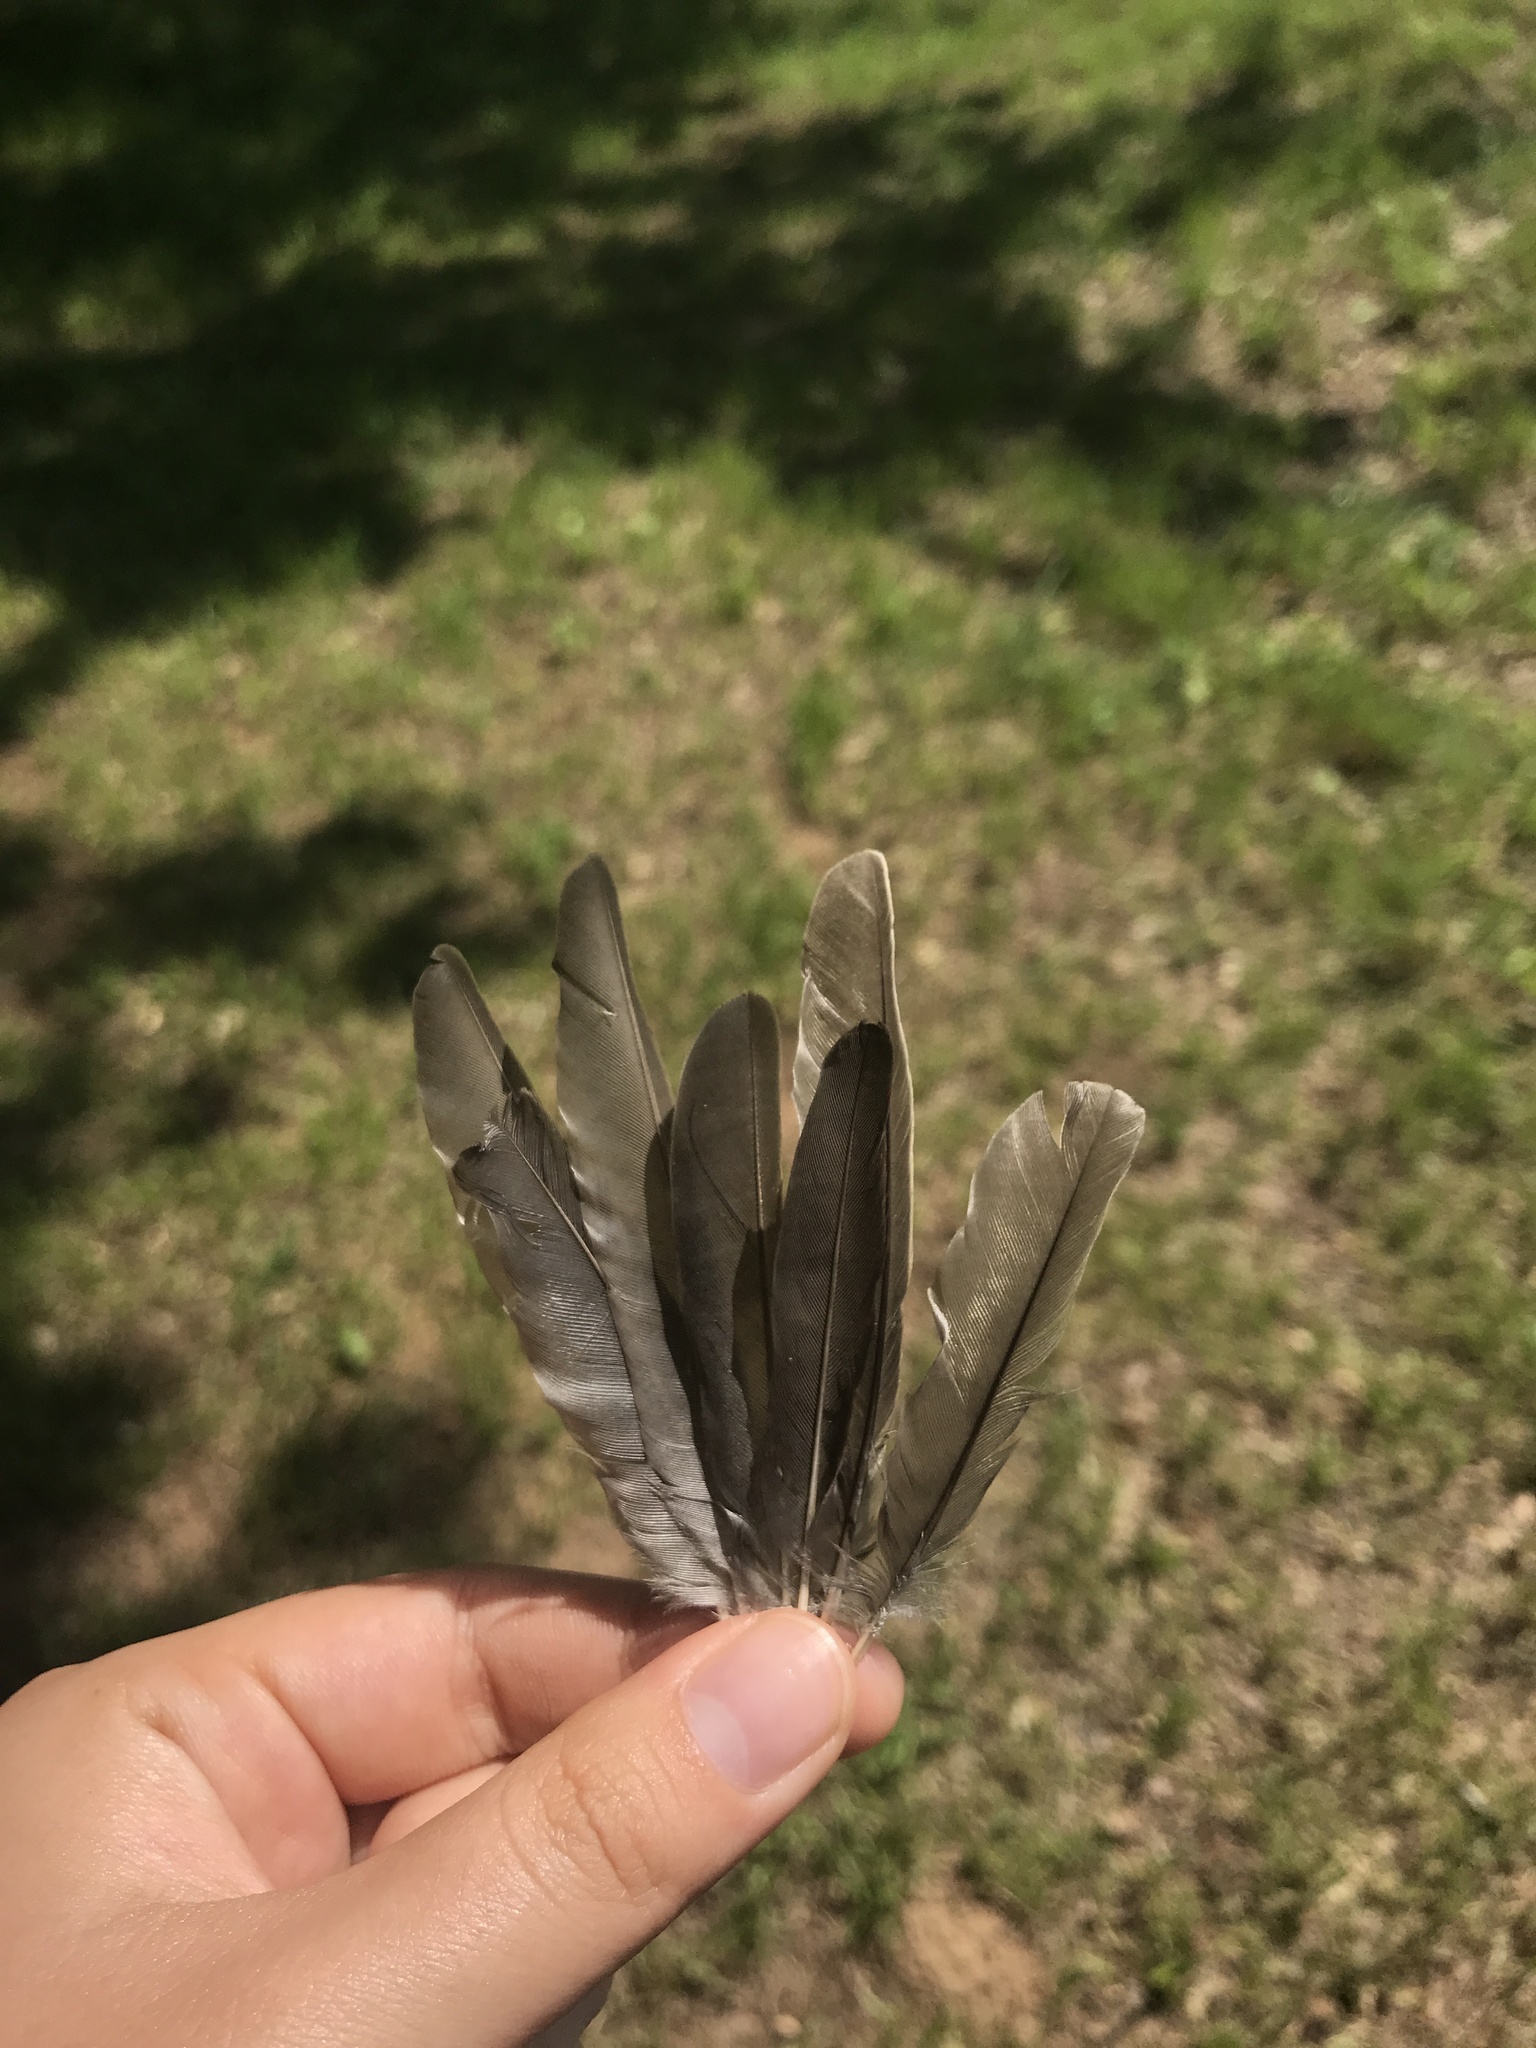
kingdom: Animalia
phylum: Chordata
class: Aves
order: Passeriformes
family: Icteridae
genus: Molothrus
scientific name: Molothrus ater
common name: Brown-headed cowbird
